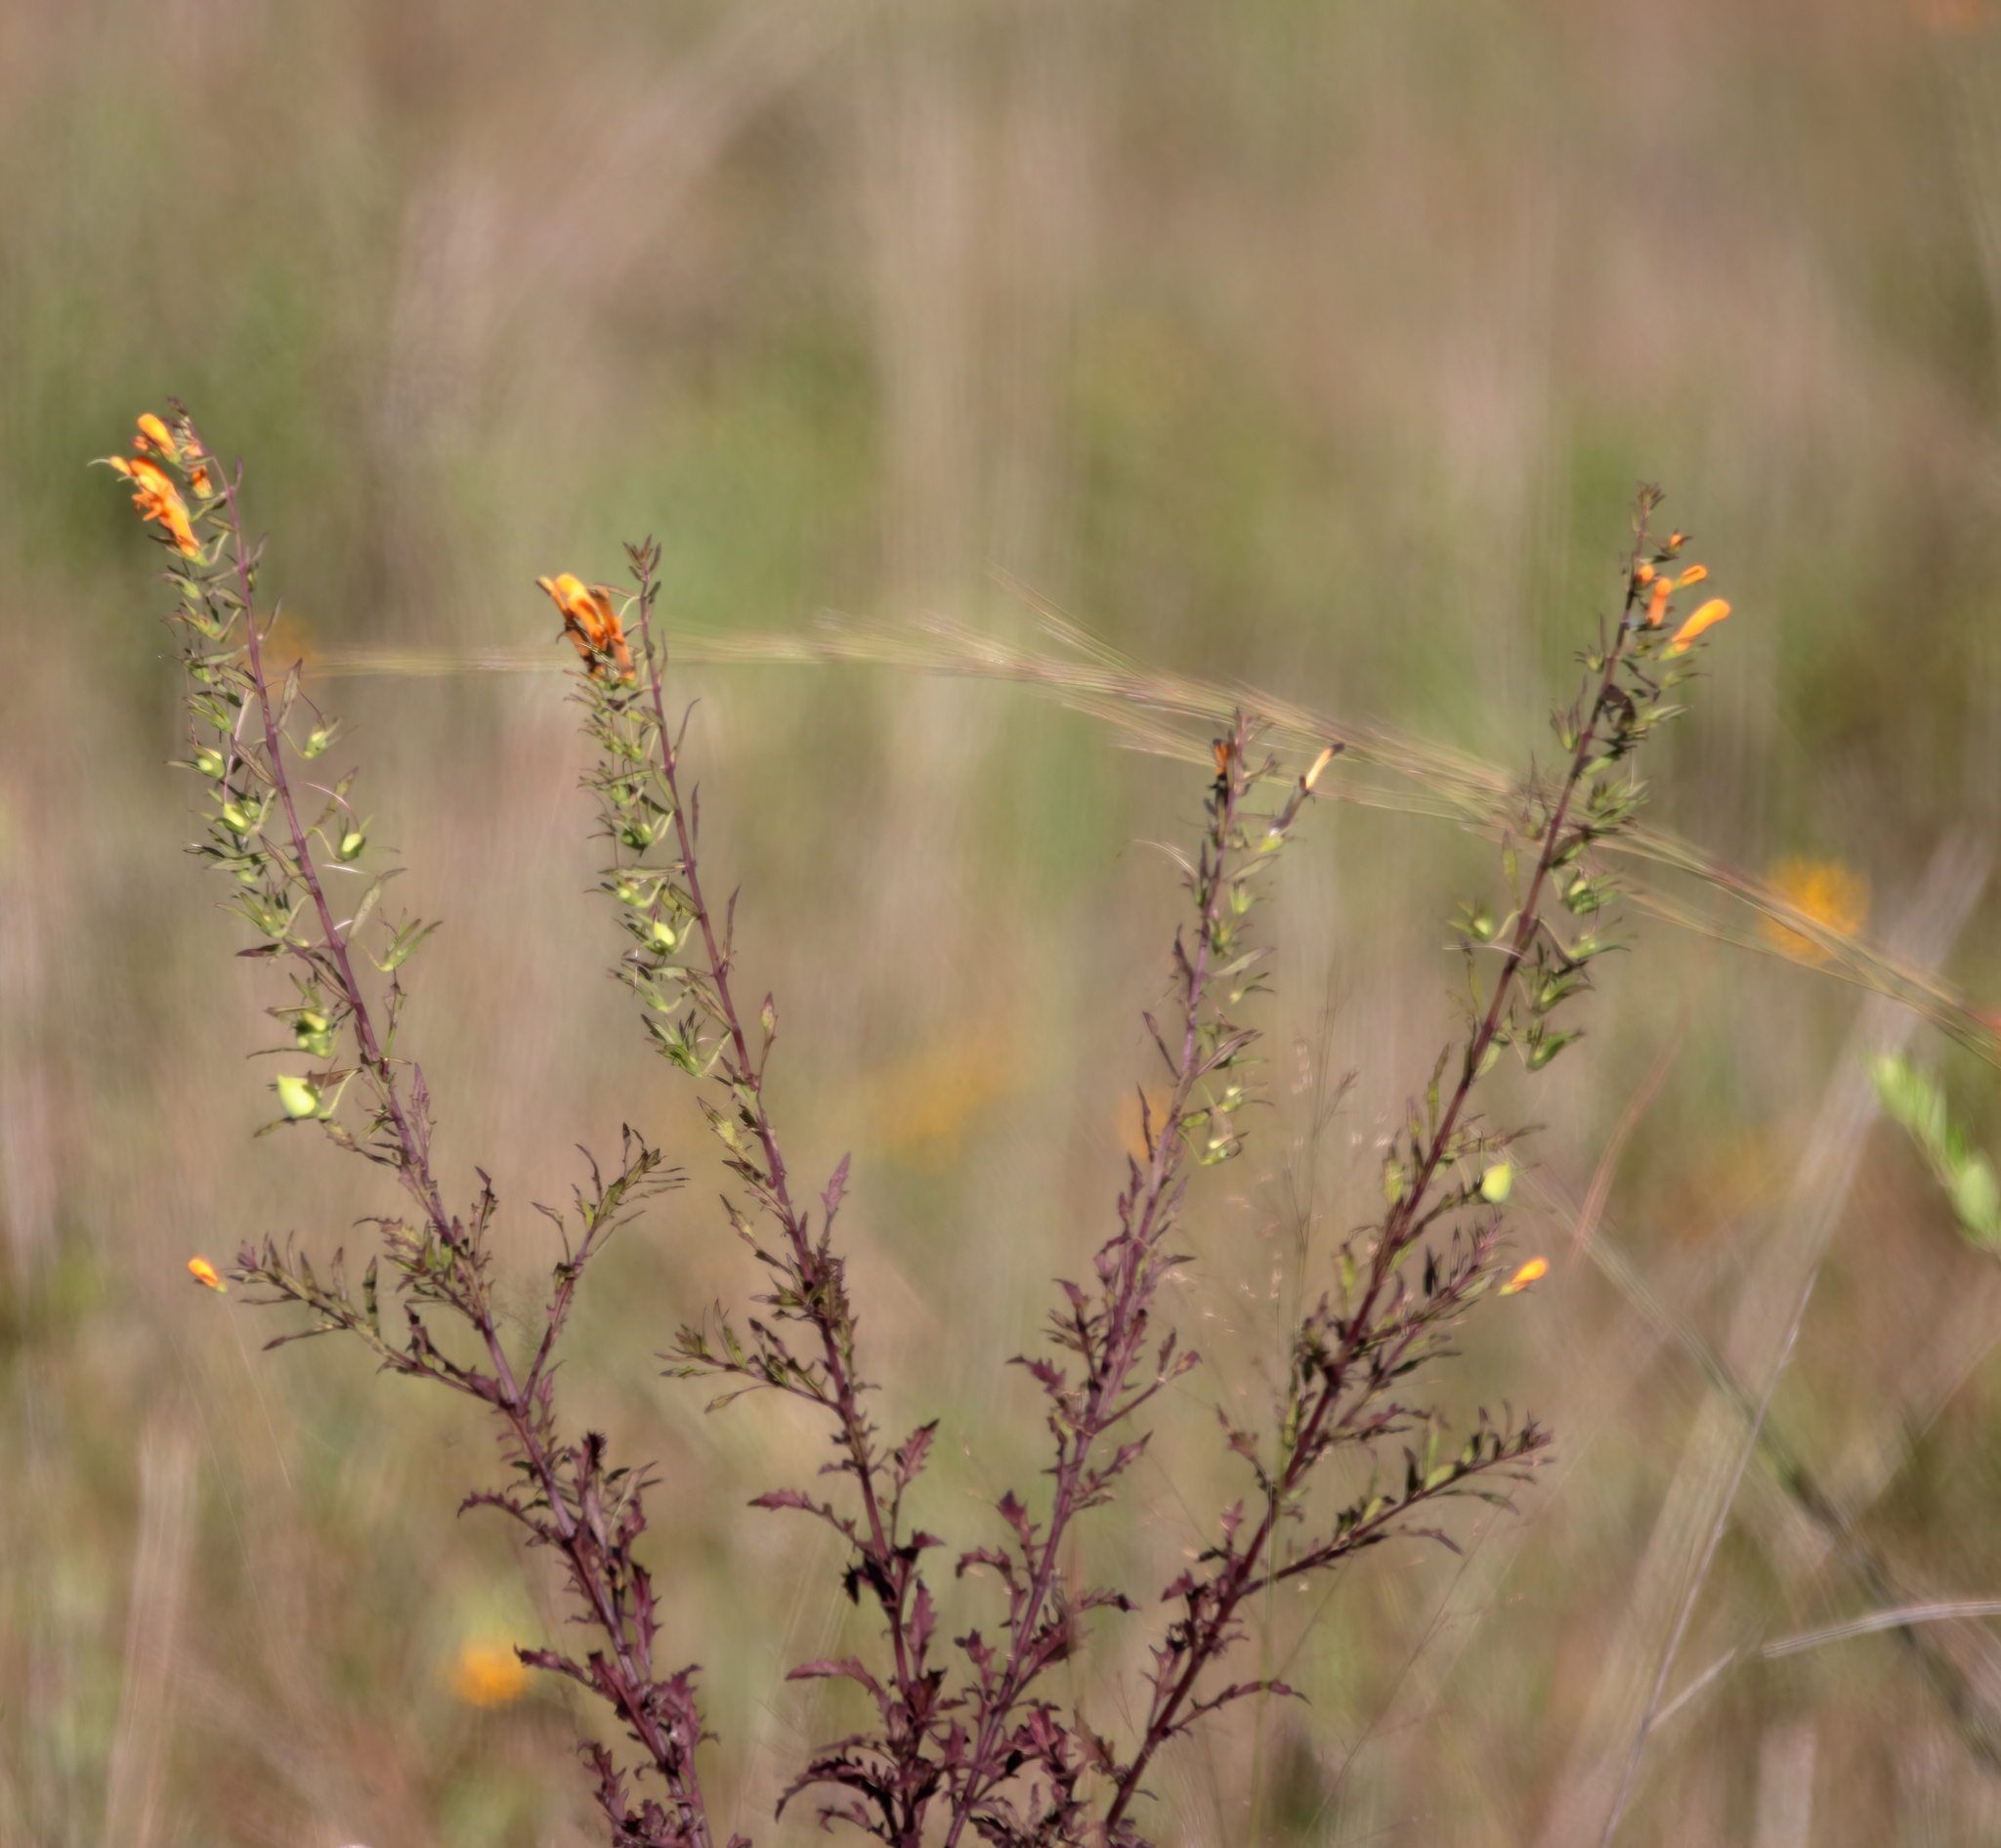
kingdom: Plantae
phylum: Tracheophyta
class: Magnoliopsida
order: Lamiales
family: Orobanchaceae
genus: Macranthera
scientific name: Macranthera flammea
